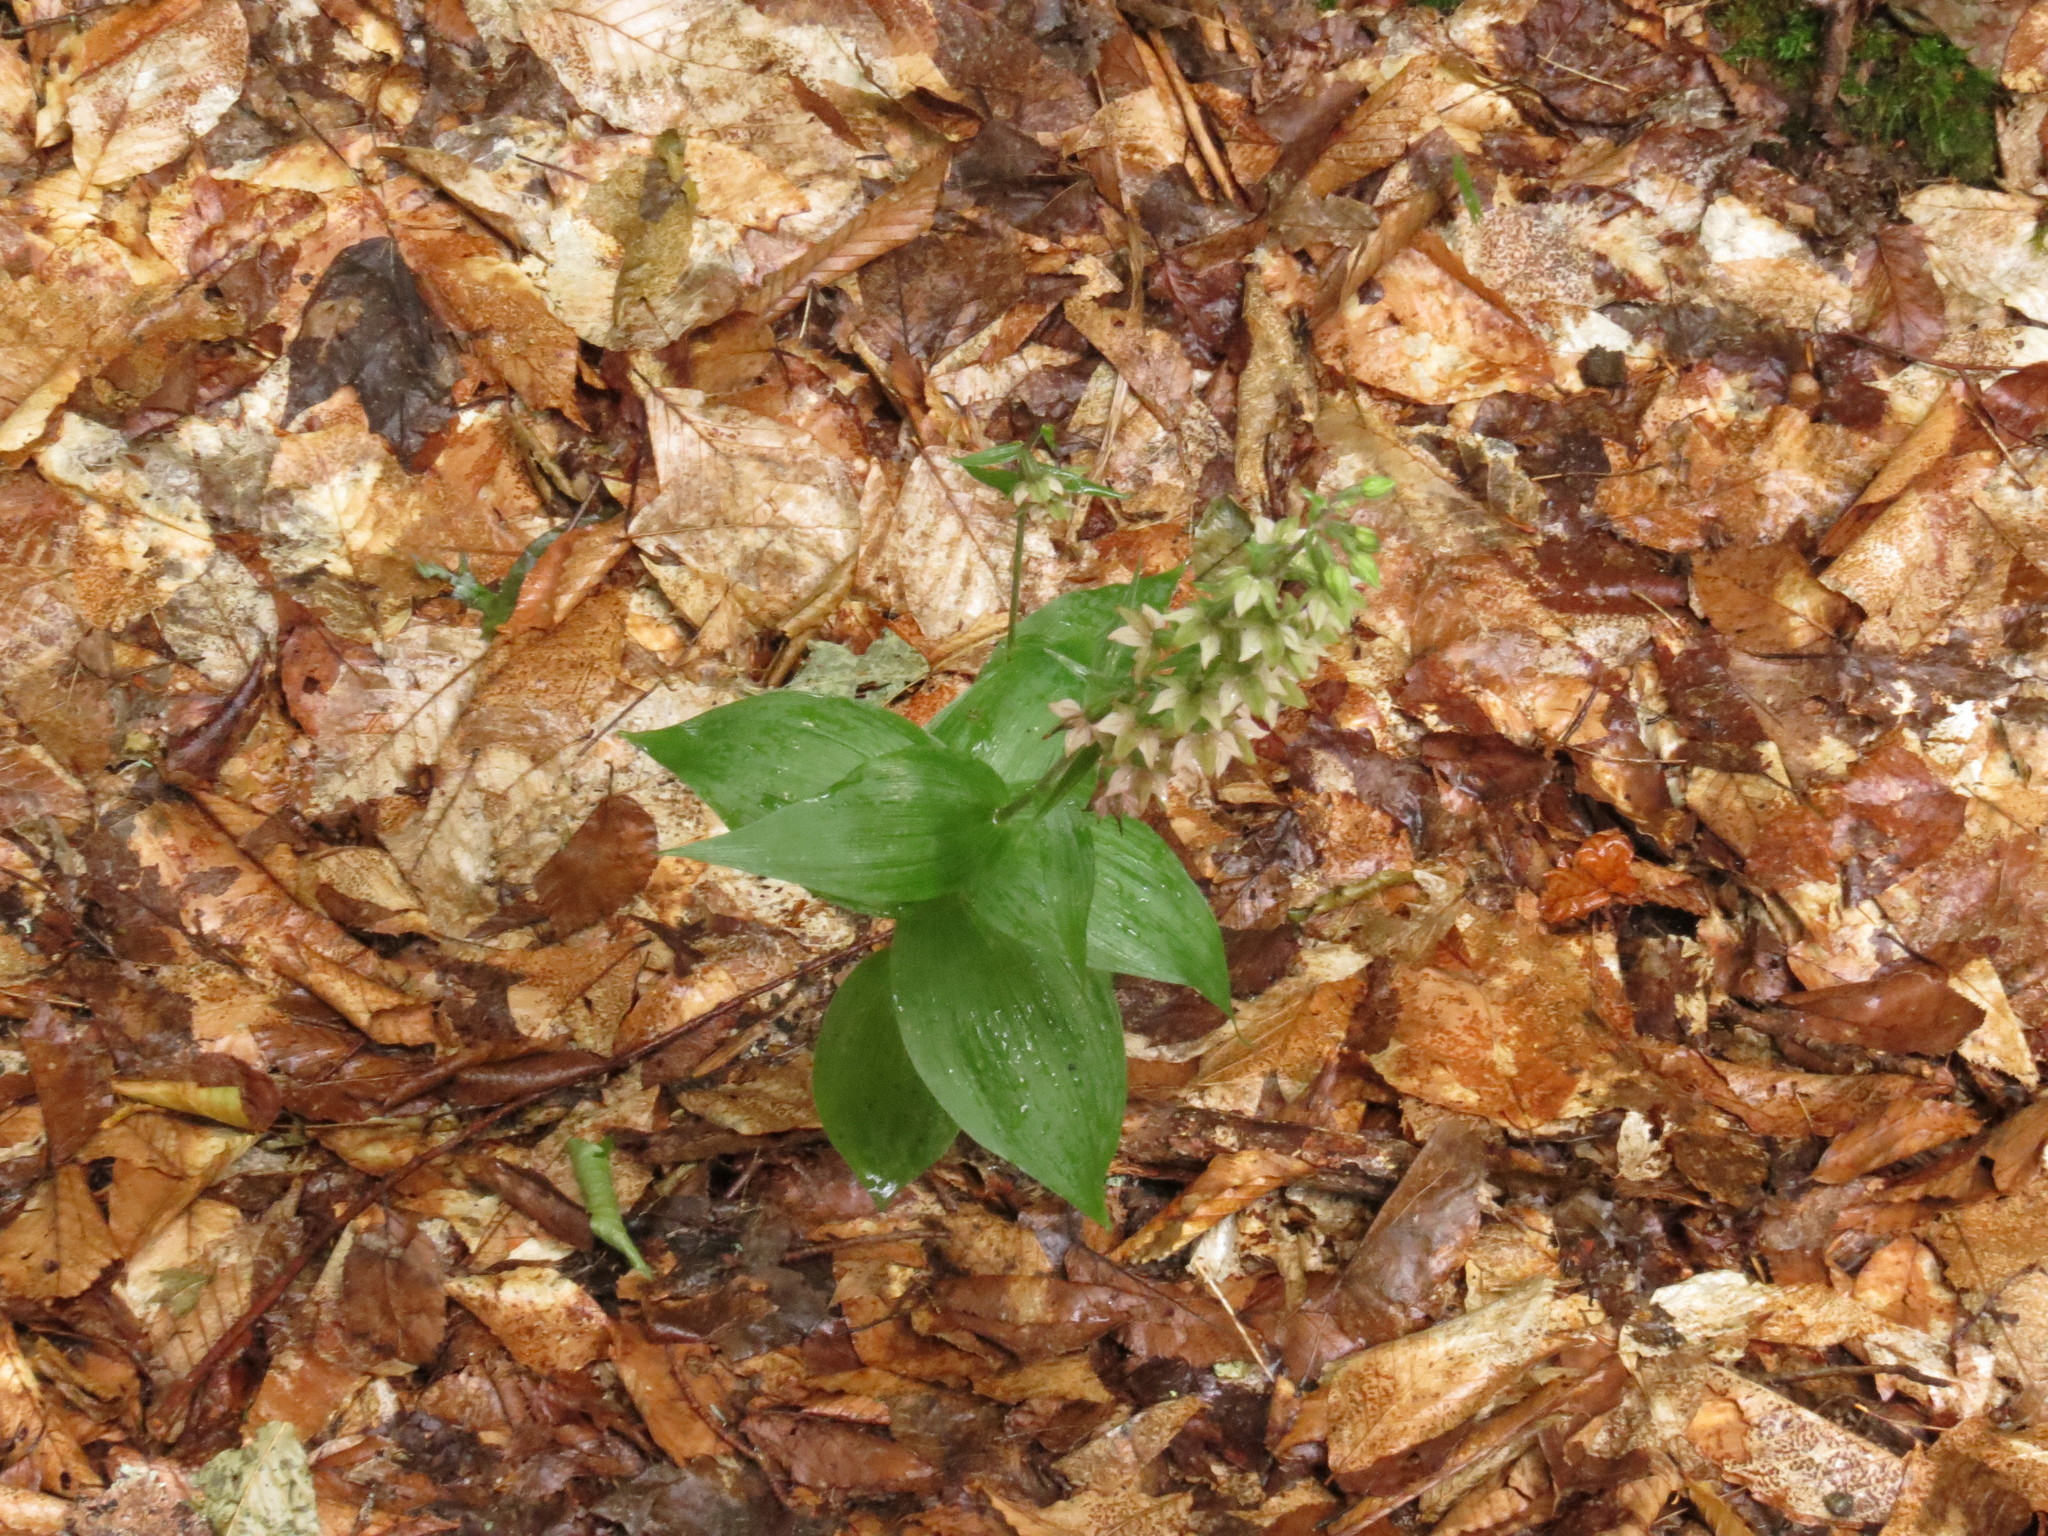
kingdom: Plantae
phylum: Tracheophyta
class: Liliopsida
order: Asparagales
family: Orchidaceae
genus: Epipactis
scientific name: Epipactis helleborine
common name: Broad-leaved helleborine
